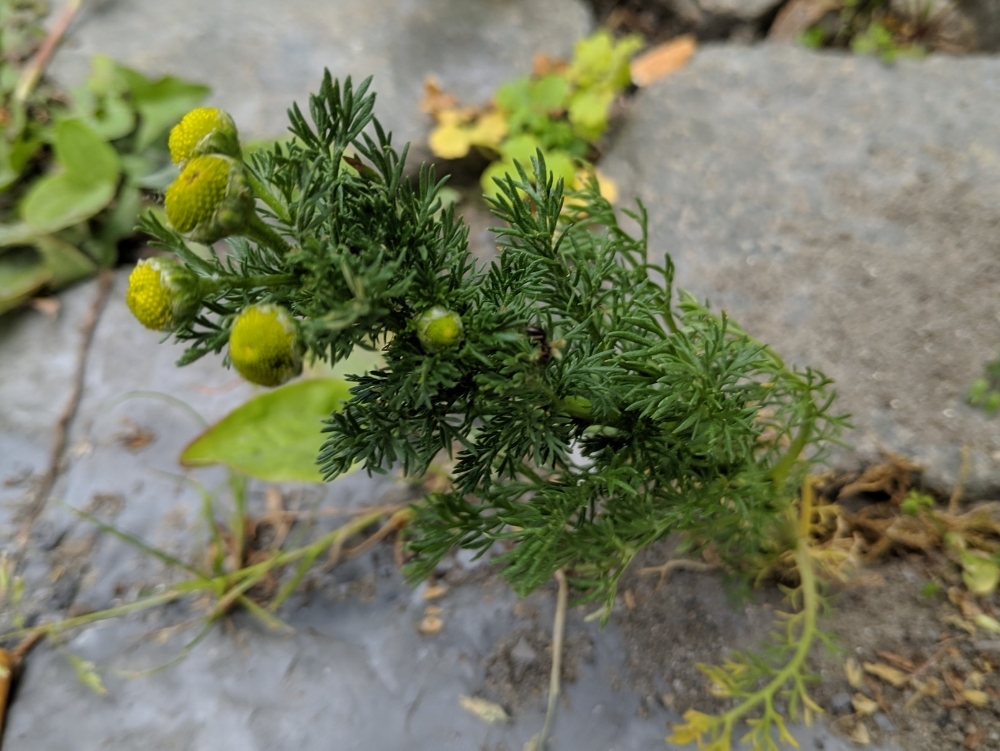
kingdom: Plantae
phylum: Tracheophyta
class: Magnoliopsida
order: Asterales
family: Asteraceae
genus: Matricaria
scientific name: Matricaria discoidea
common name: Disc mayweed
